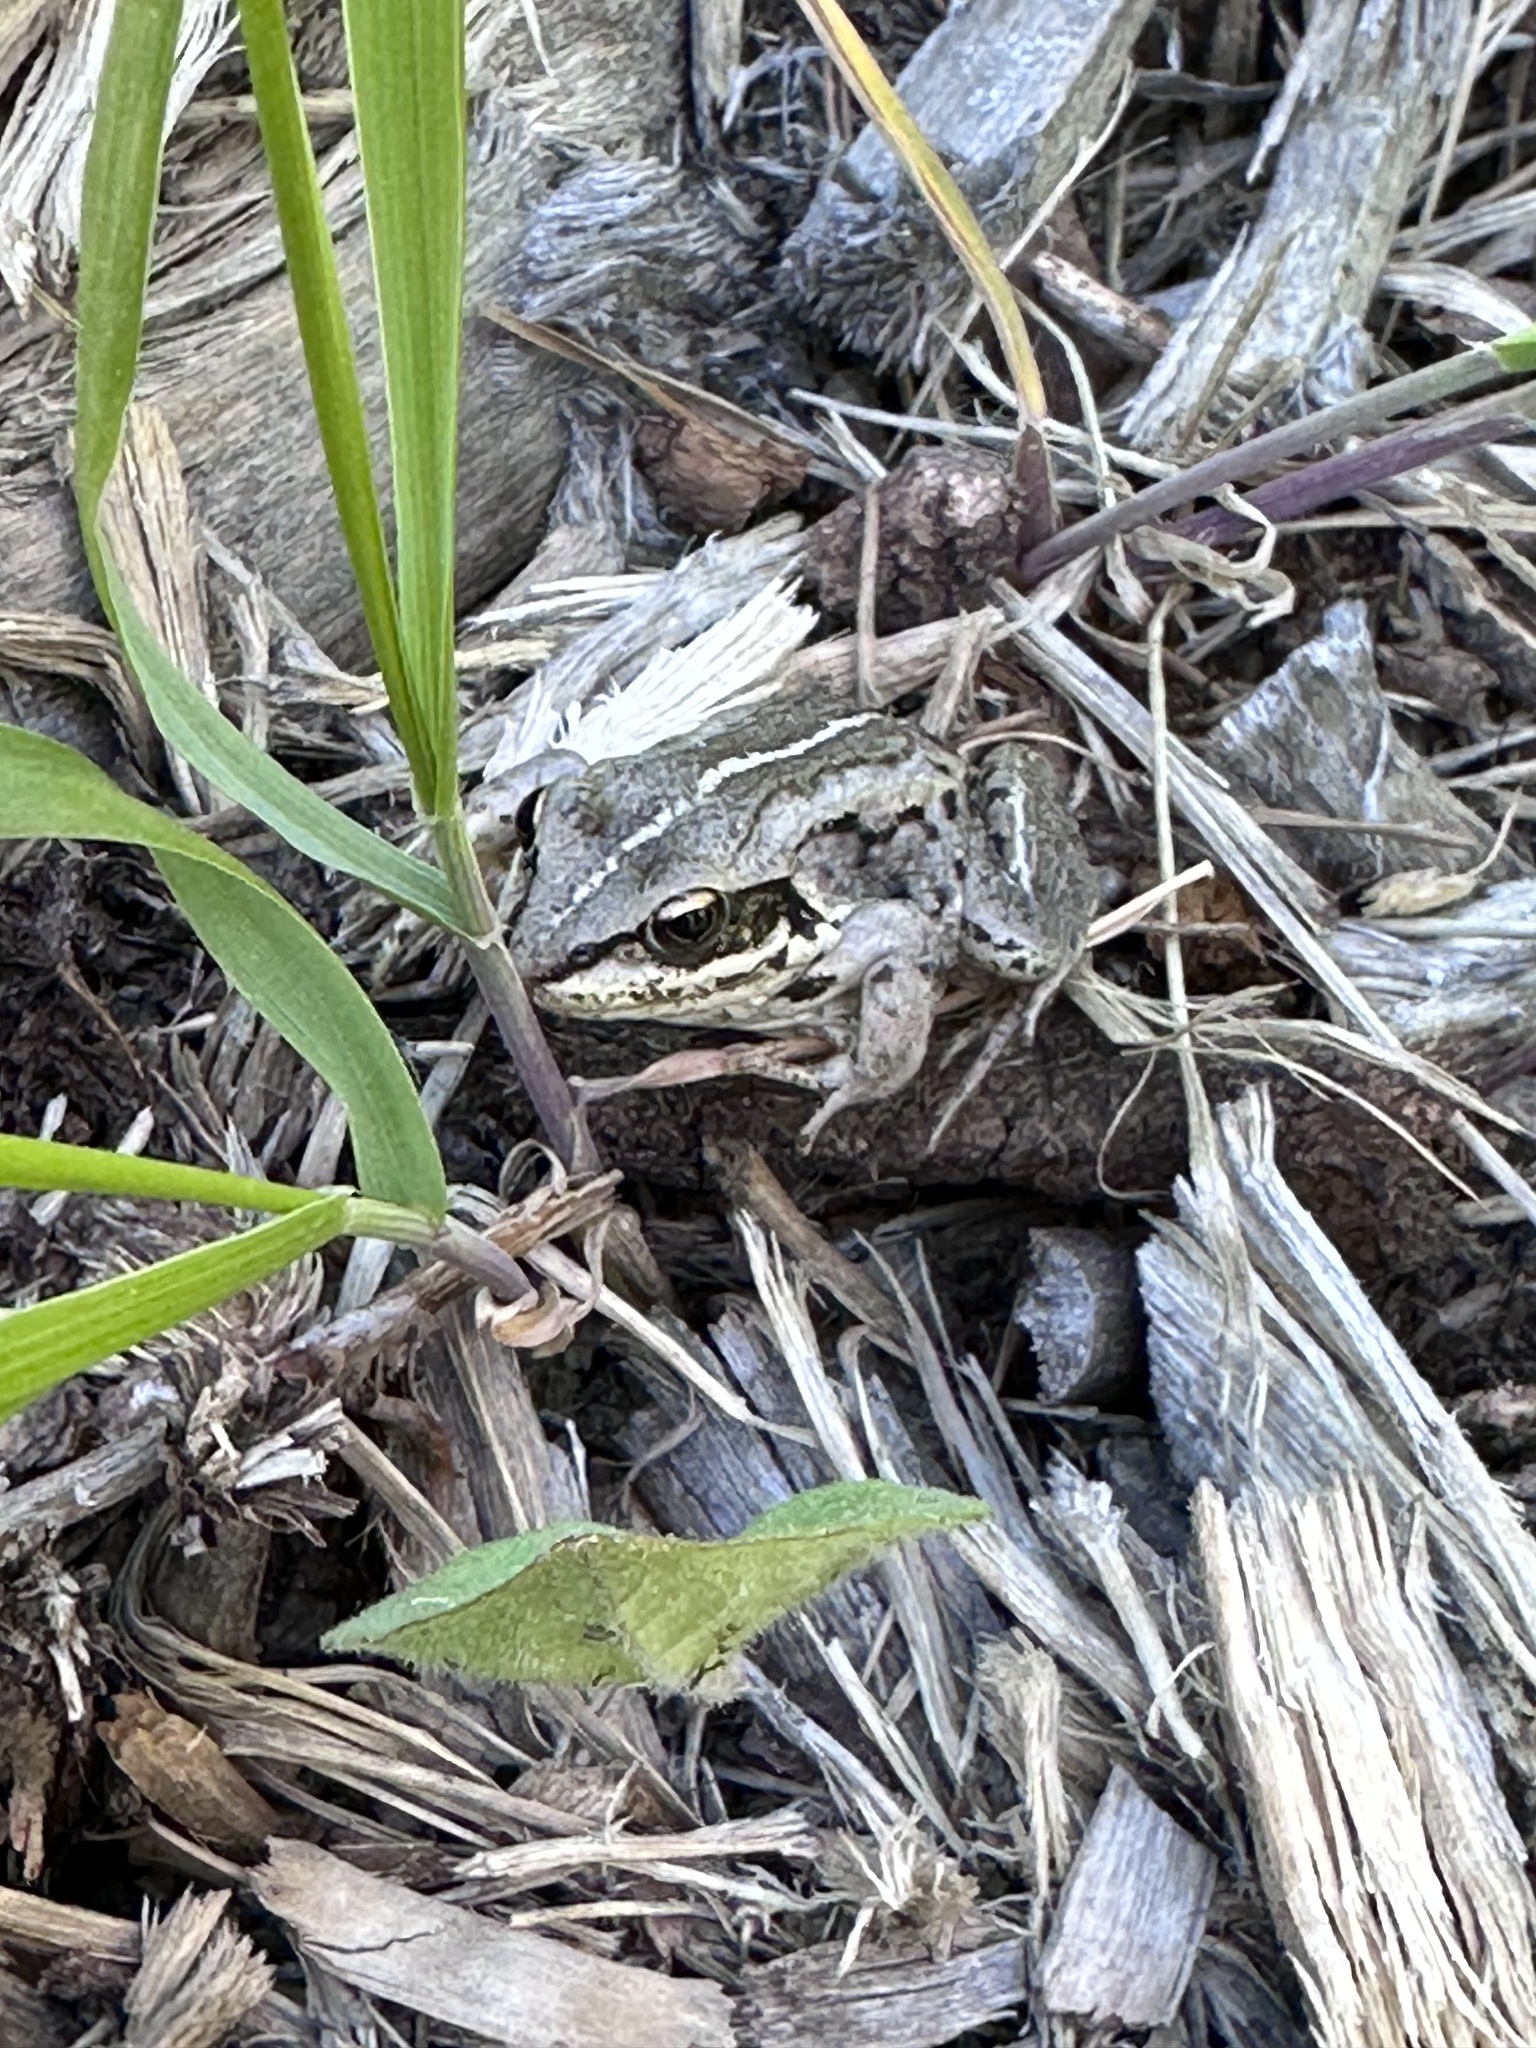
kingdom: Animalia
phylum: Chordata
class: Amphibia
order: Anura
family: Ranidae
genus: Lithobates
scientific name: Lithobates sylvaticus
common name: Wood frog
